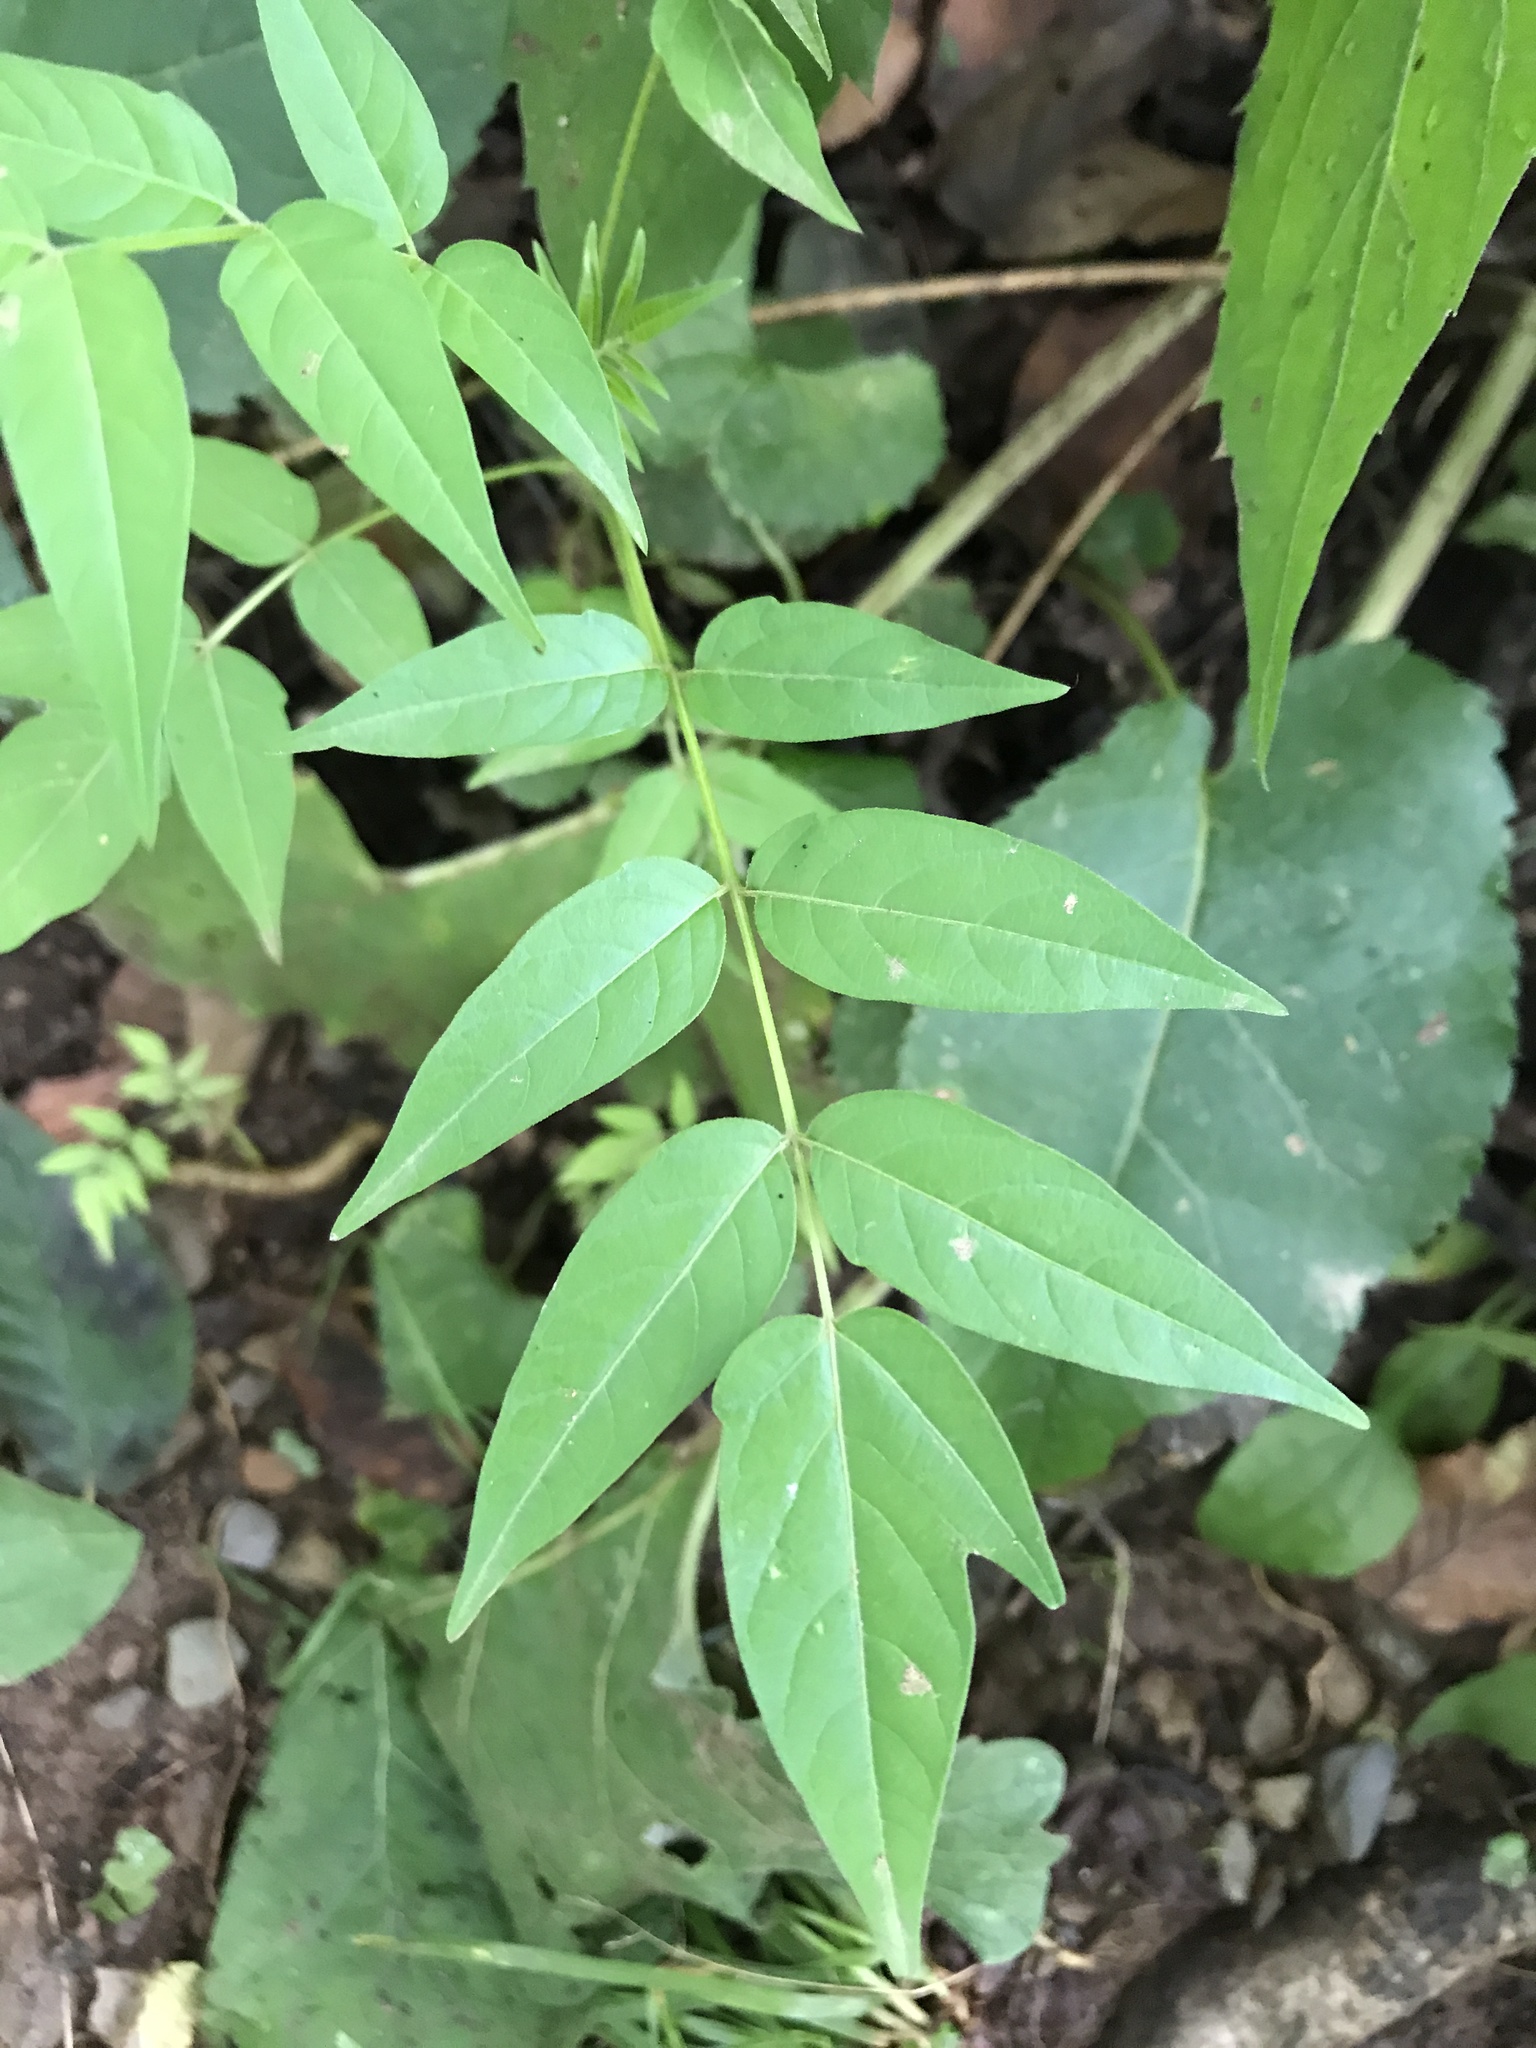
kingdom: Plantae
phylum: Tracheophyta
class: Magnoliopsida
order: Sapindales
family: Simaroubaceae
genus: Ailanthus
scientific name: Ailanthus altissima
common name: Tree-of-heaven
